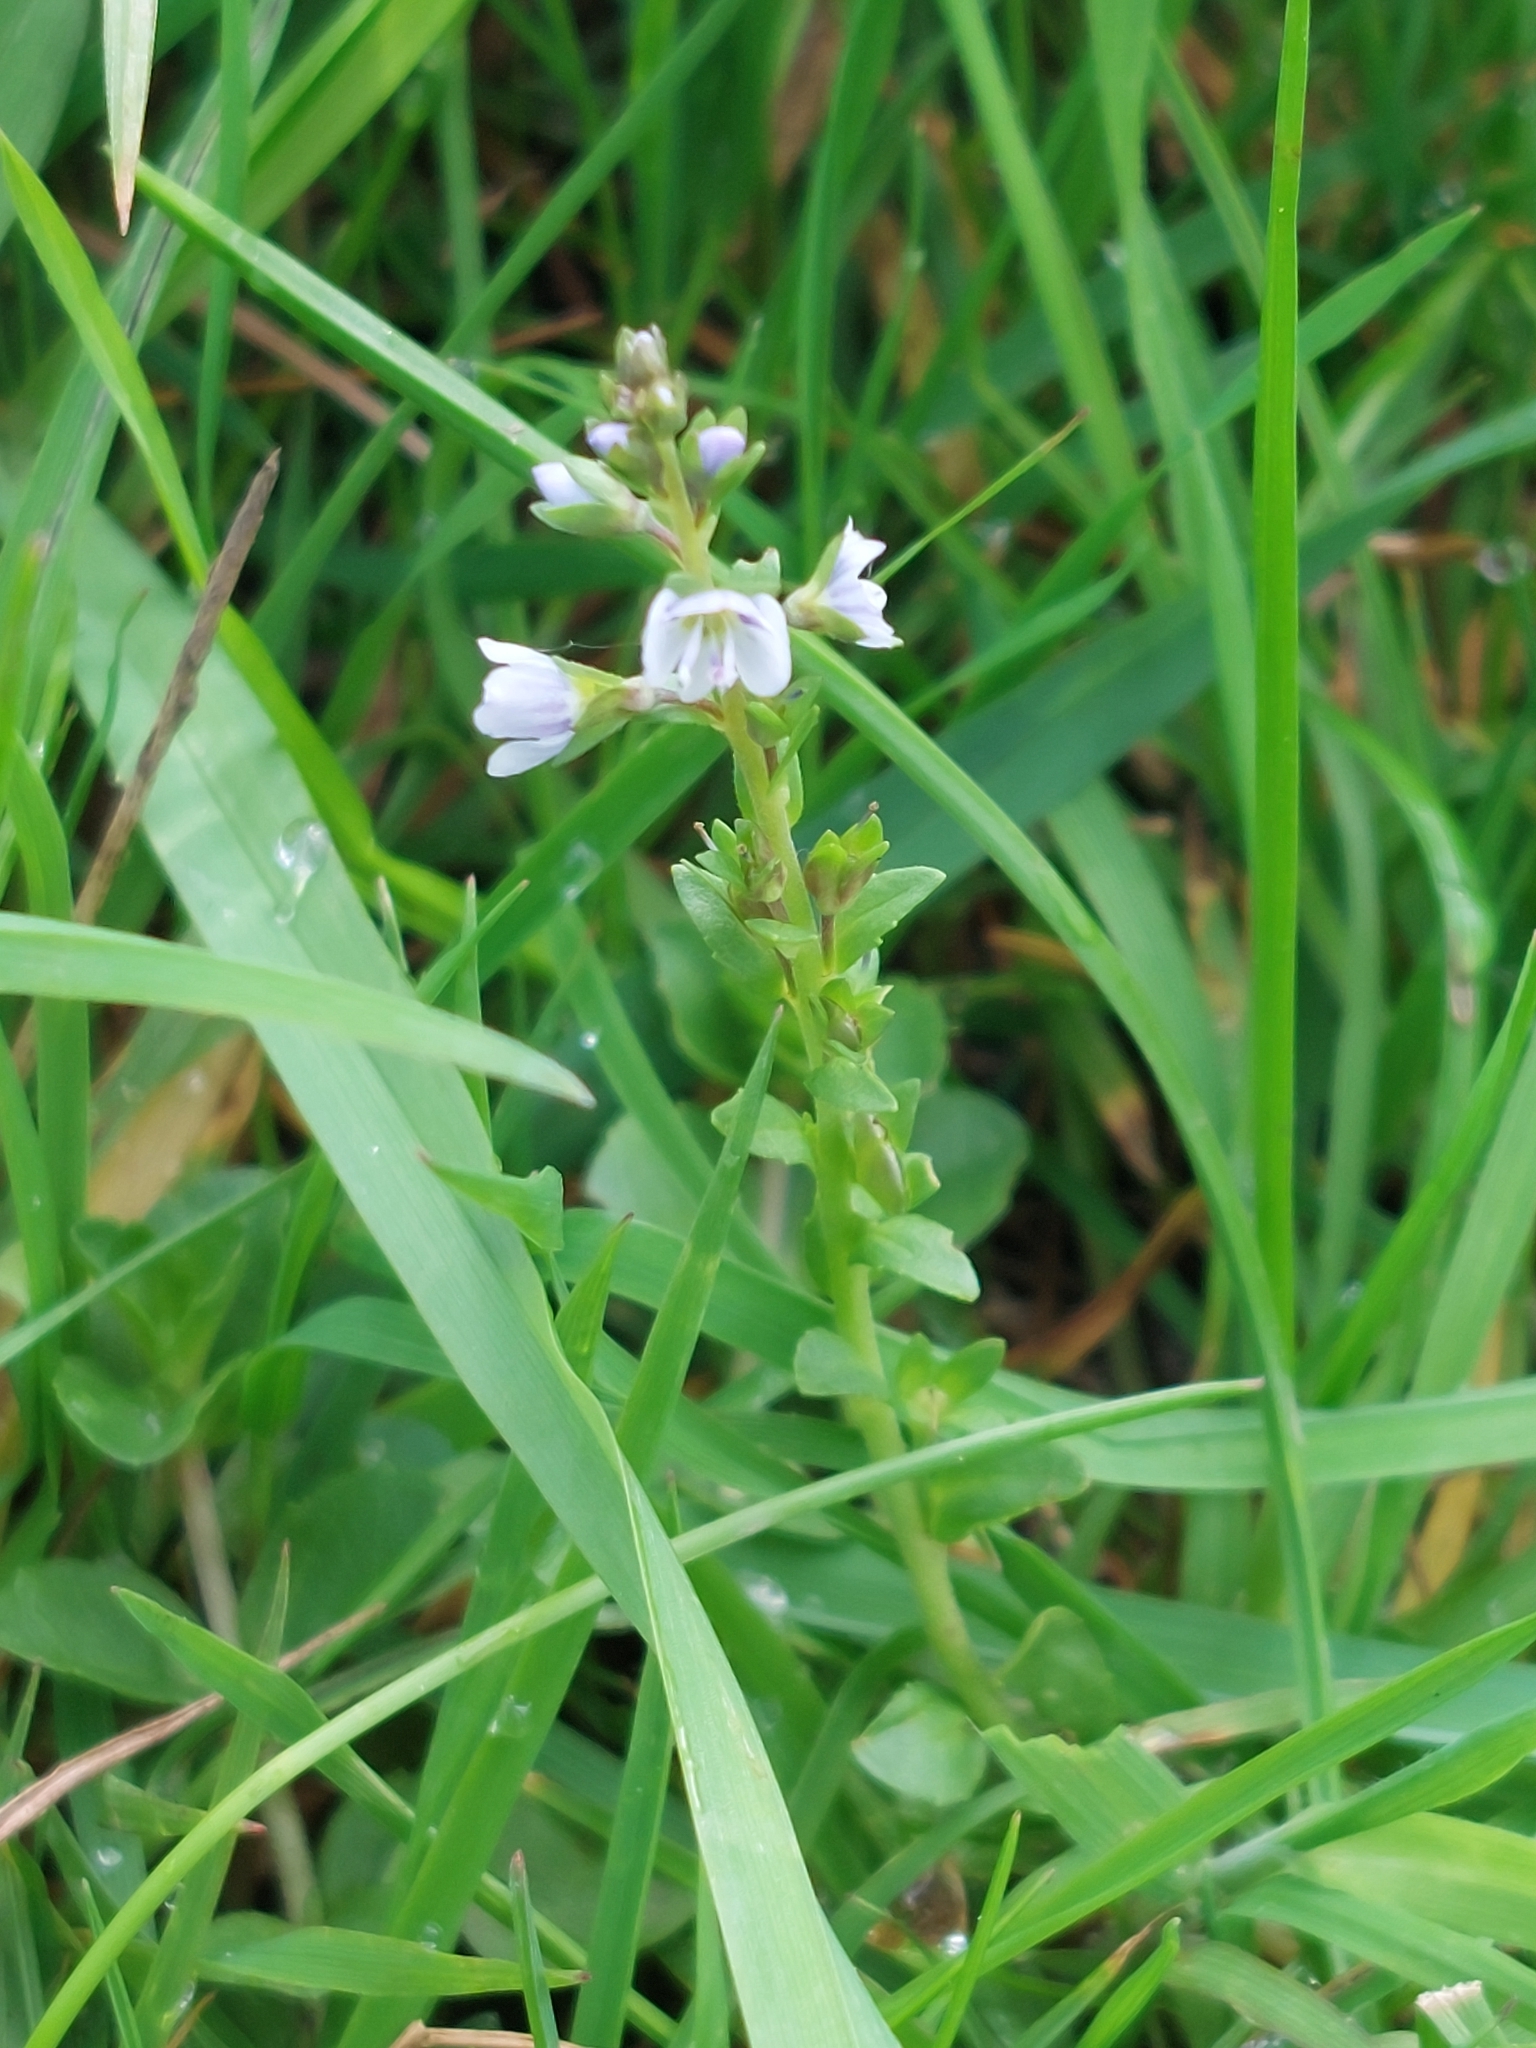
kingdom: Plantae
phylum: Tracheophyta
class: Magnoliopsida
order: Lamiales
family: Plantaginaceae
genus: Veronica
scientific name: Veronica serpyllifolia
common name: Thyme-leaved speedwell
